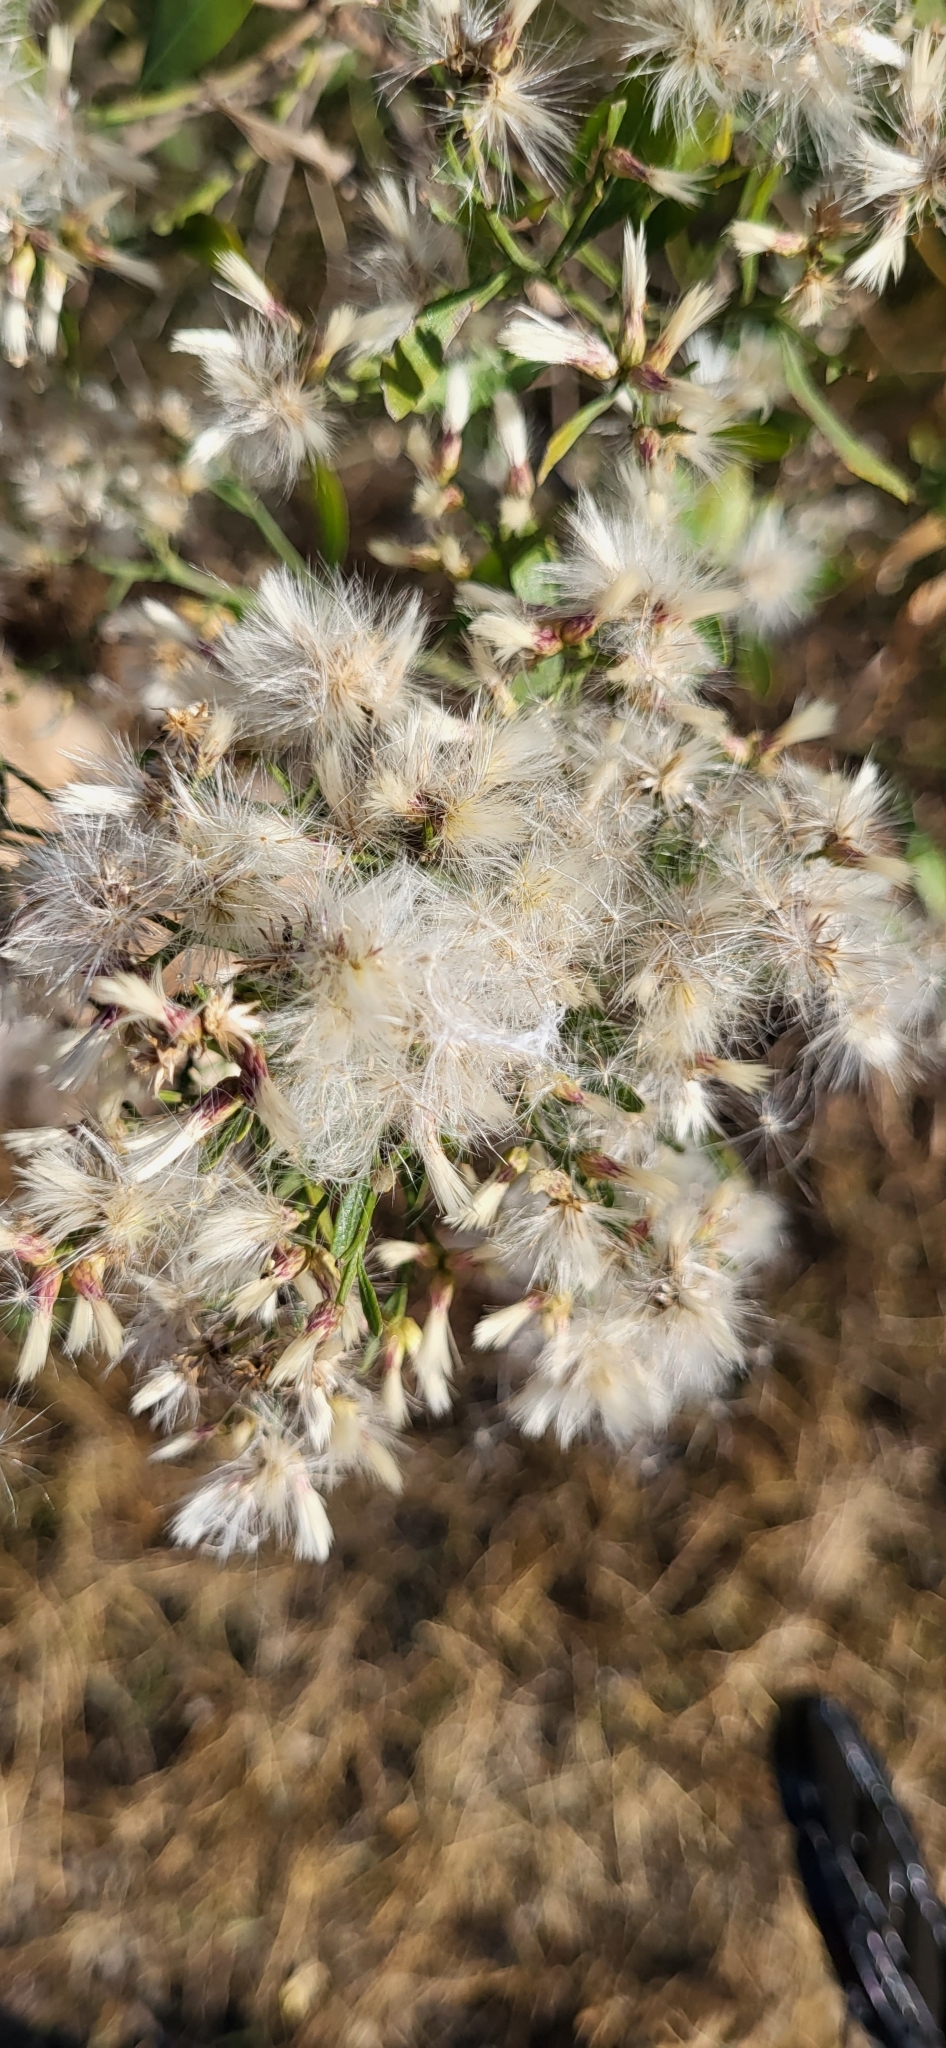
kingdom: Plantae
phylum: Tracheophyta
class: Magnoliopsida
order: Asterales
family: Asteraceae
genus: Baccharis
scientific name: Baccharis halimifolia
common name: Eastern baccharis
